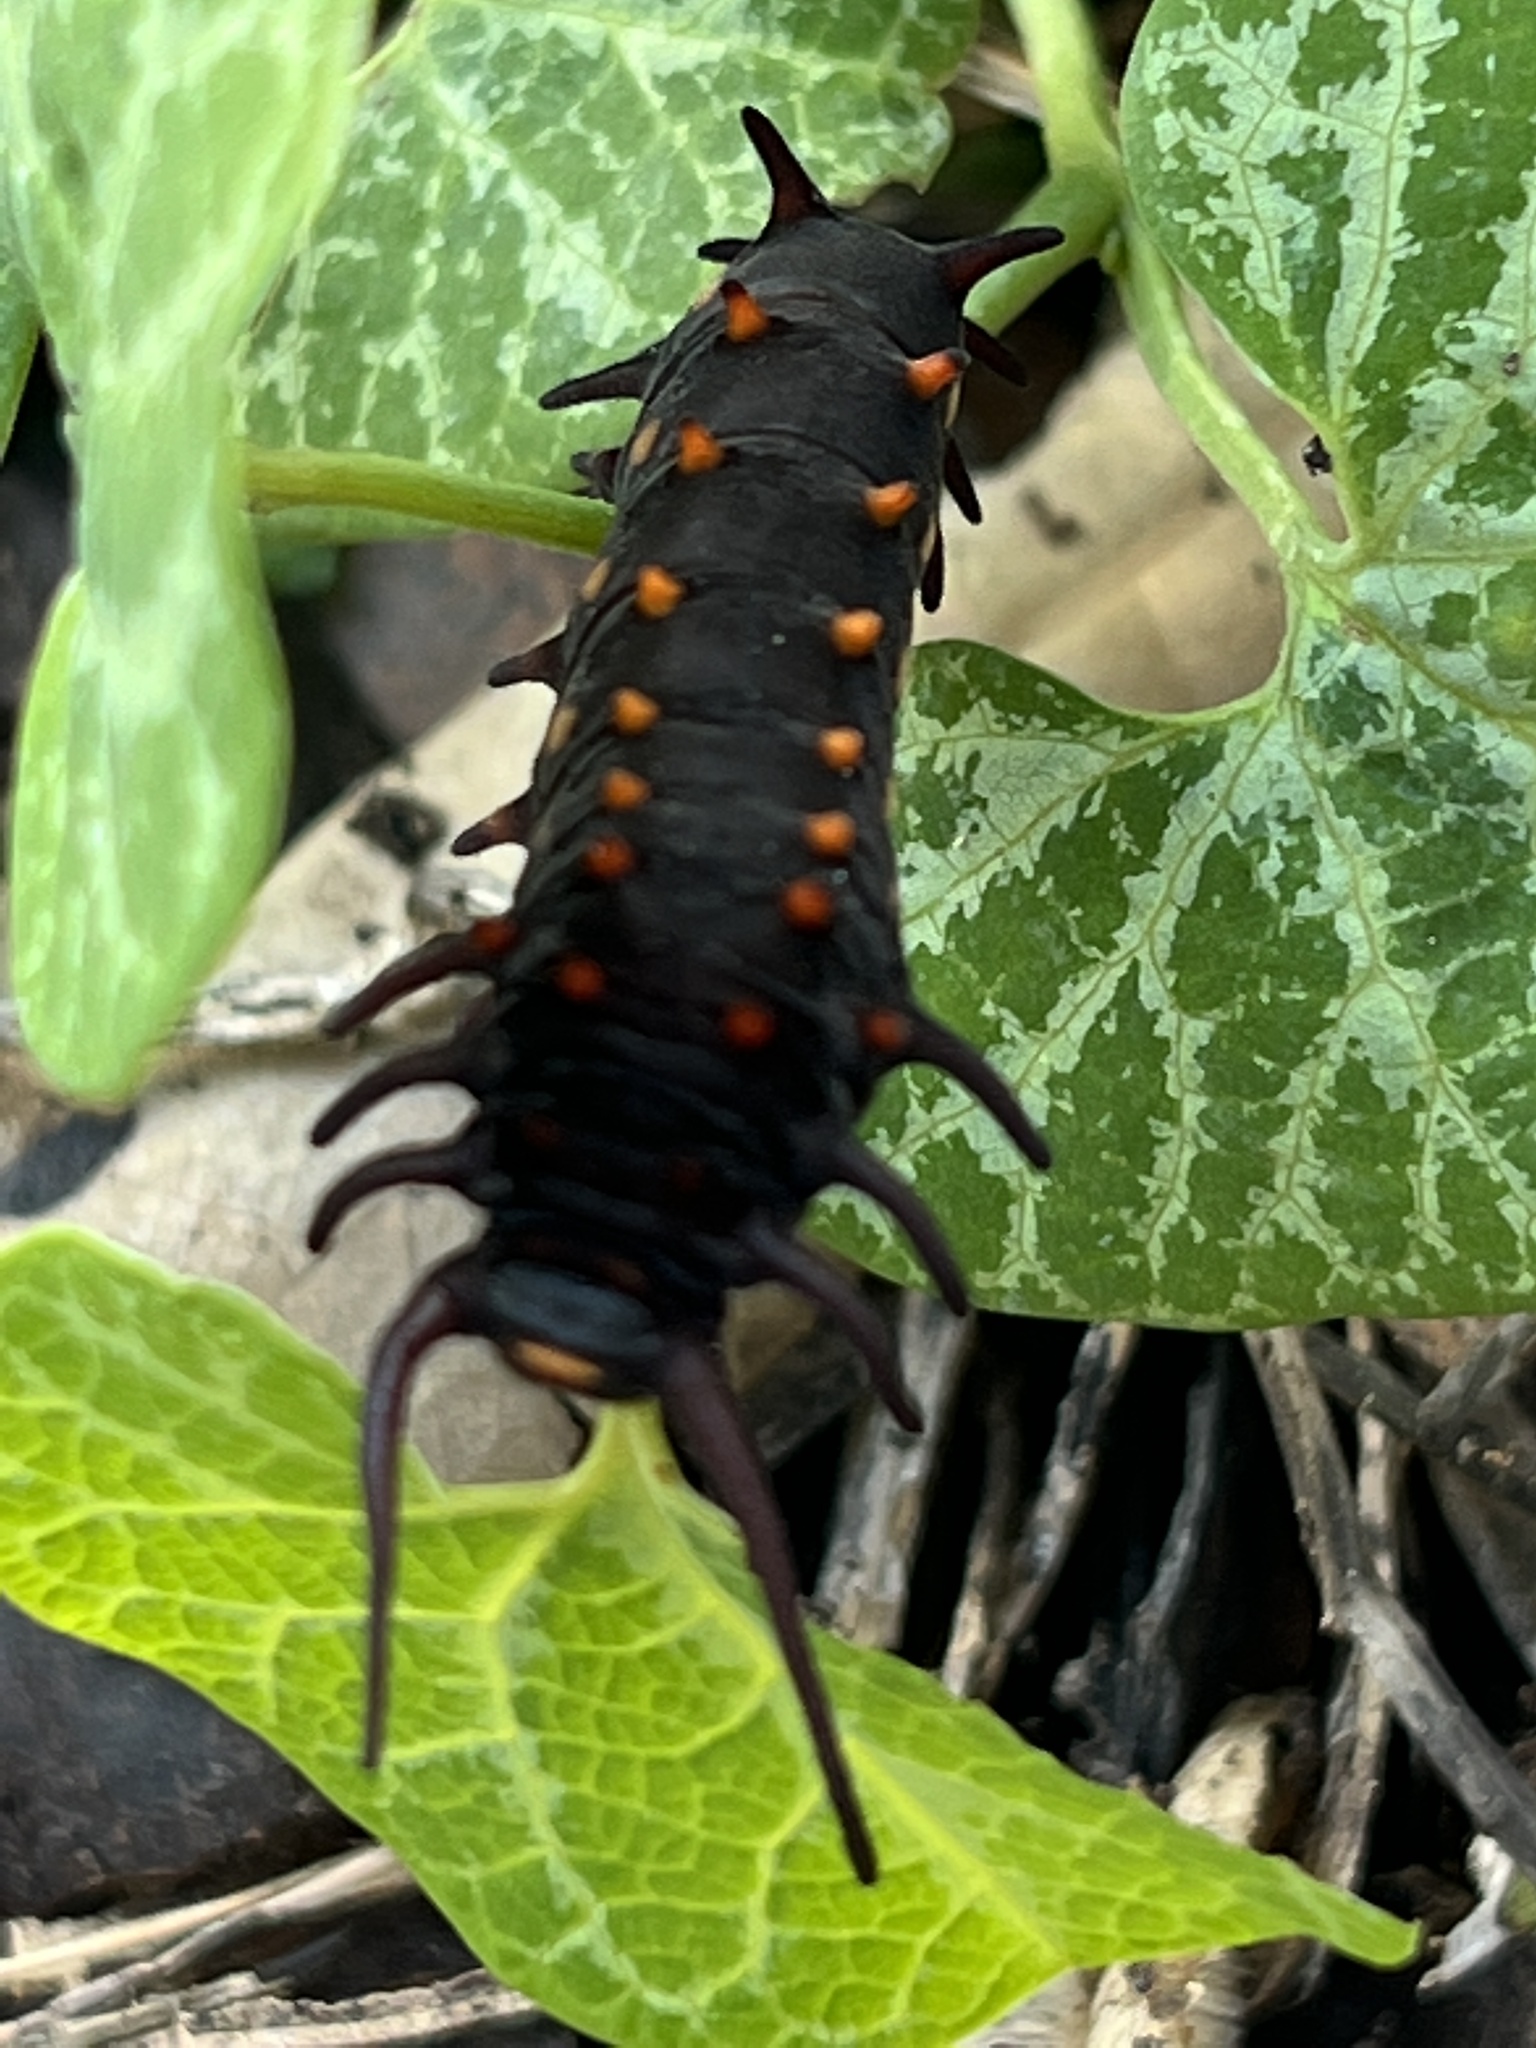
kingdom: Animalia
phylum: Arthropoda
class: Insecta
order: Lepidoptera
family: Papilionidae
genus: Battus
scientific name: Battus philenor
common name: Pipevine swallowtail
